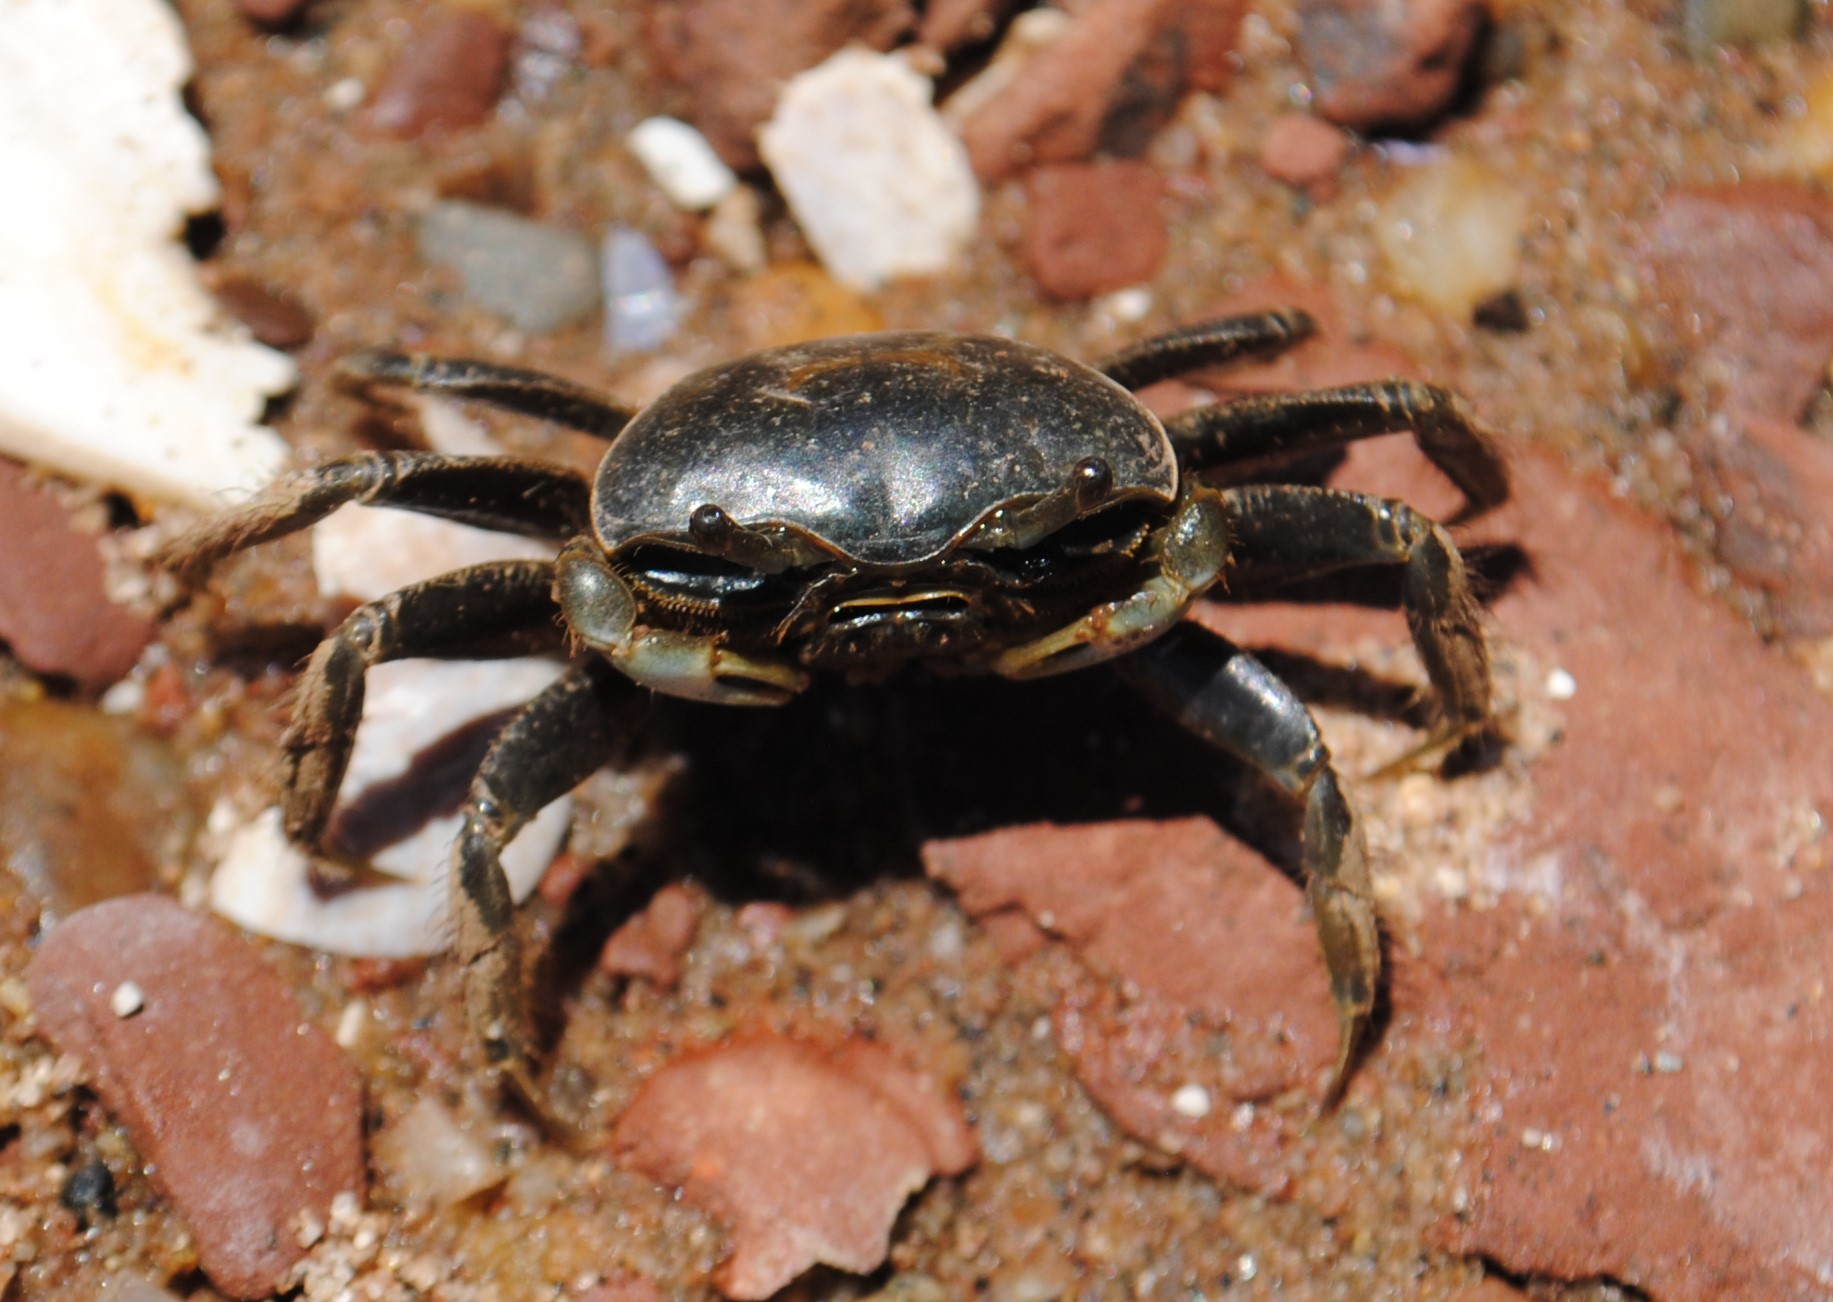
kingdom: Animalia
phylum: Arthropoda
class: Malacostraca
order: Decapoda
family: Ocypodidae
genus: Minuca
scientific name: Minuca pugnax
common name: Mud fiddler crab
